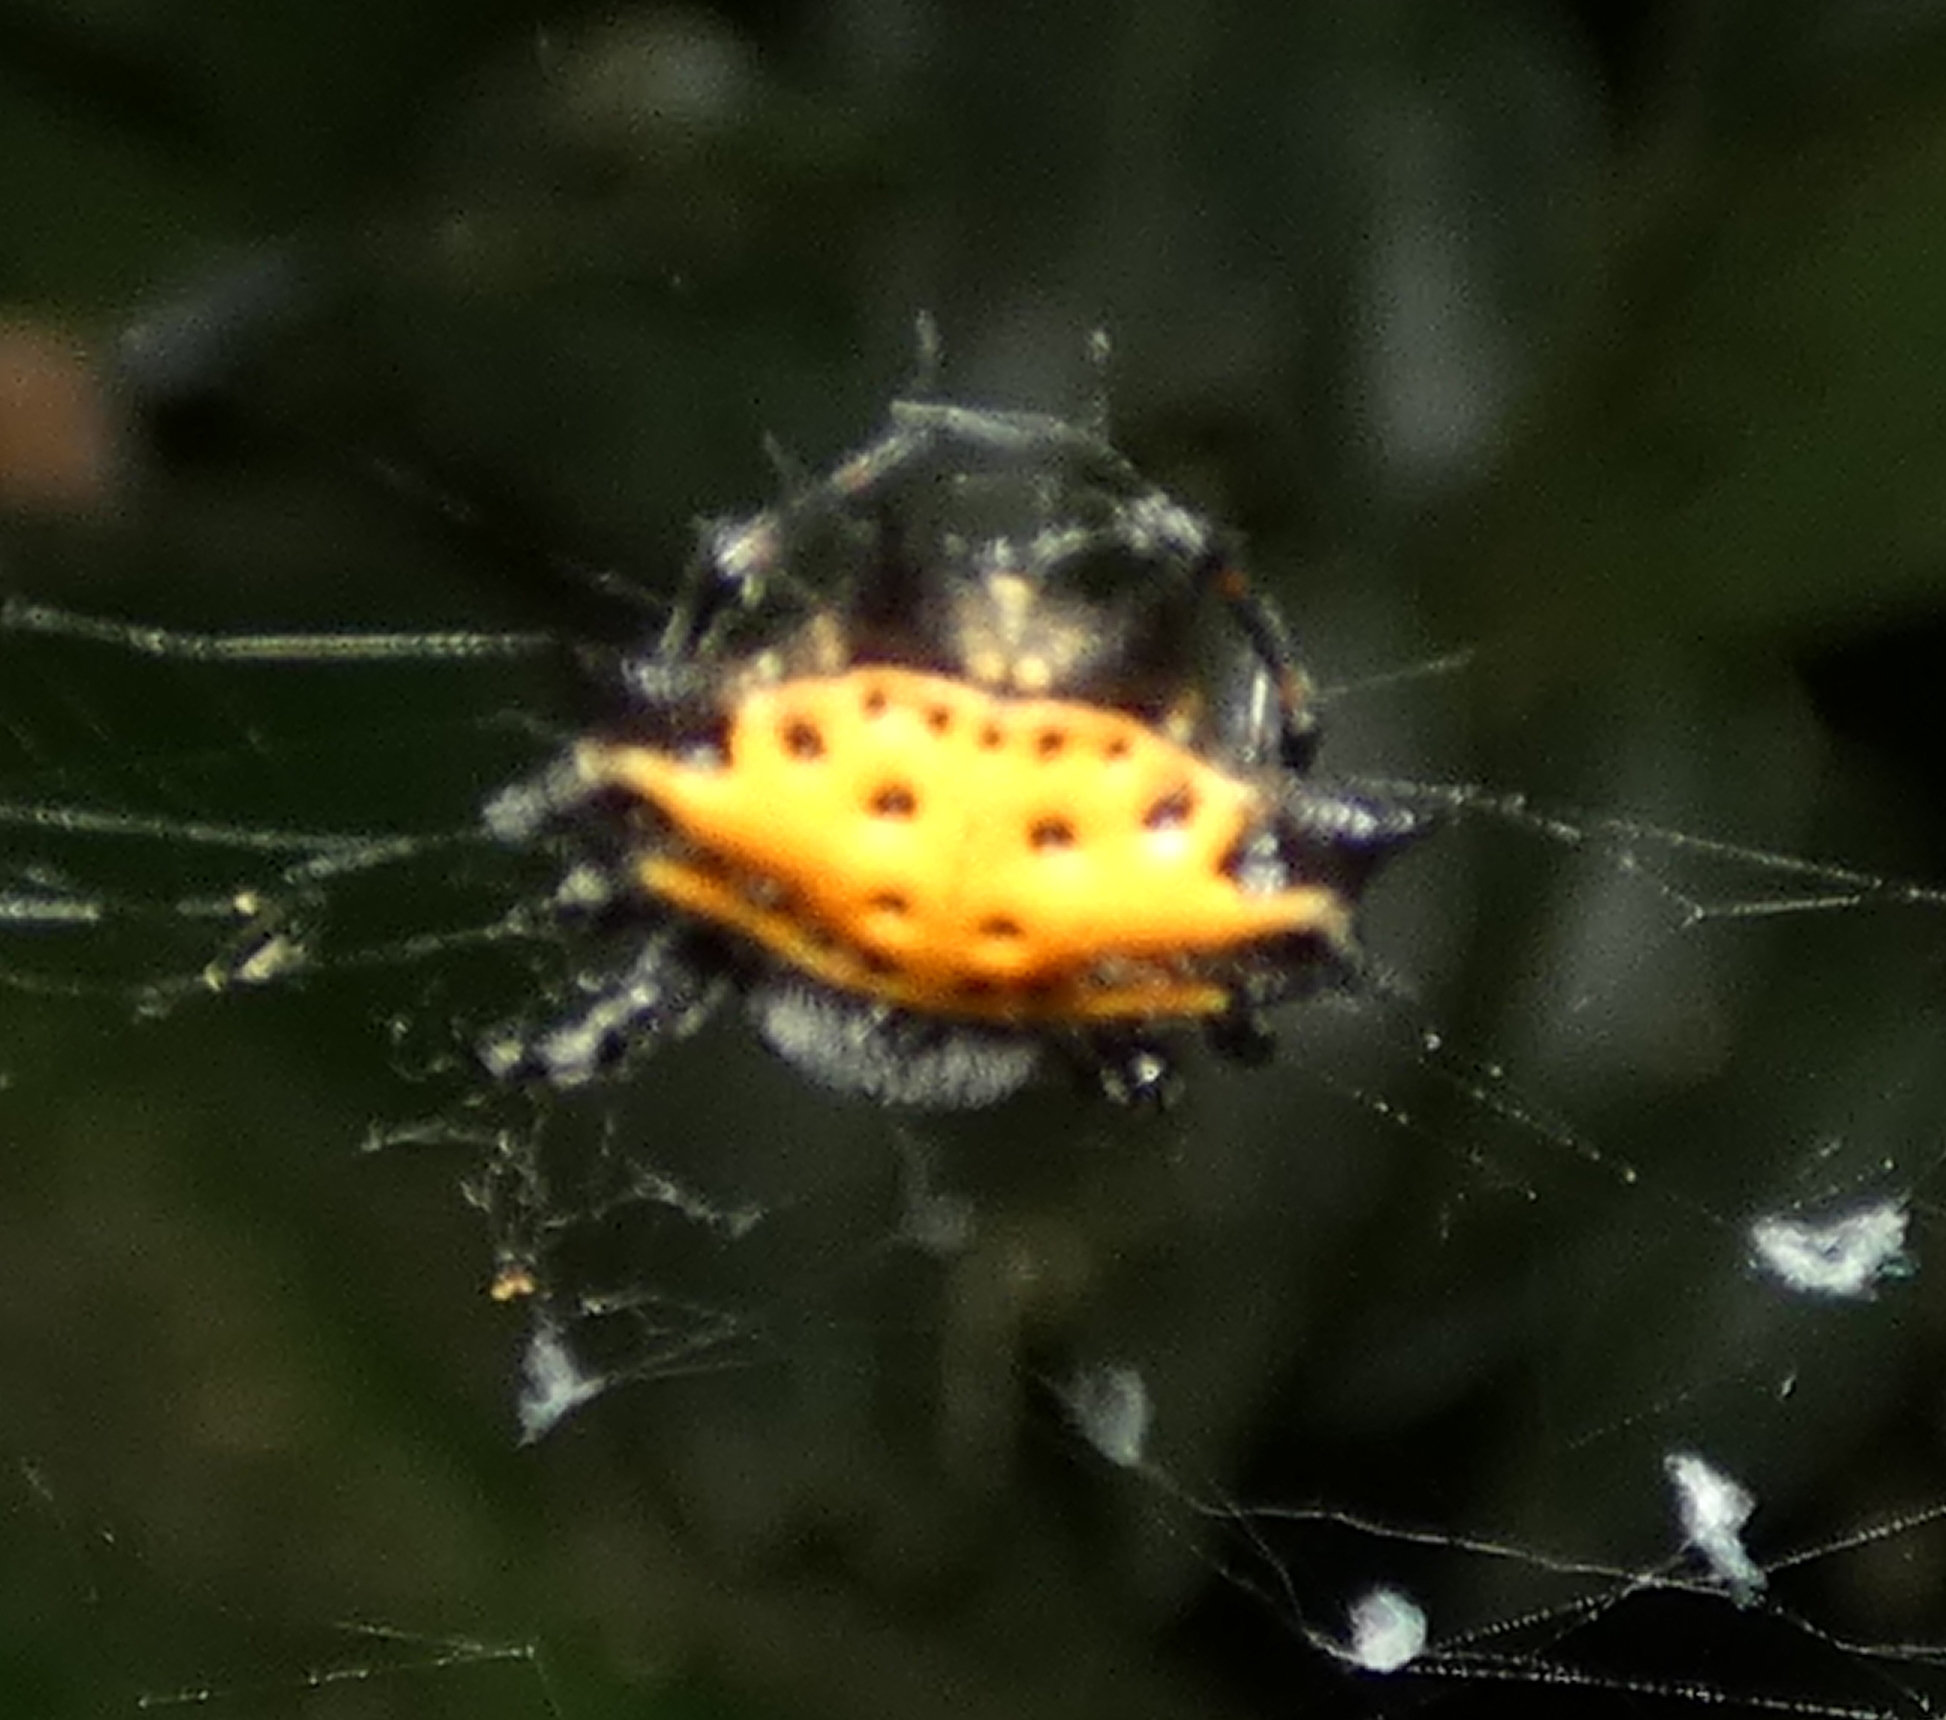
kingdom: Animalia
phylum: Arthropoda
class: Arachnida
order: Araneae
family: Araneidae
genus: Gasteracantha
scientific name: Gasteracantha cancriformis
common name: Orb weavers
